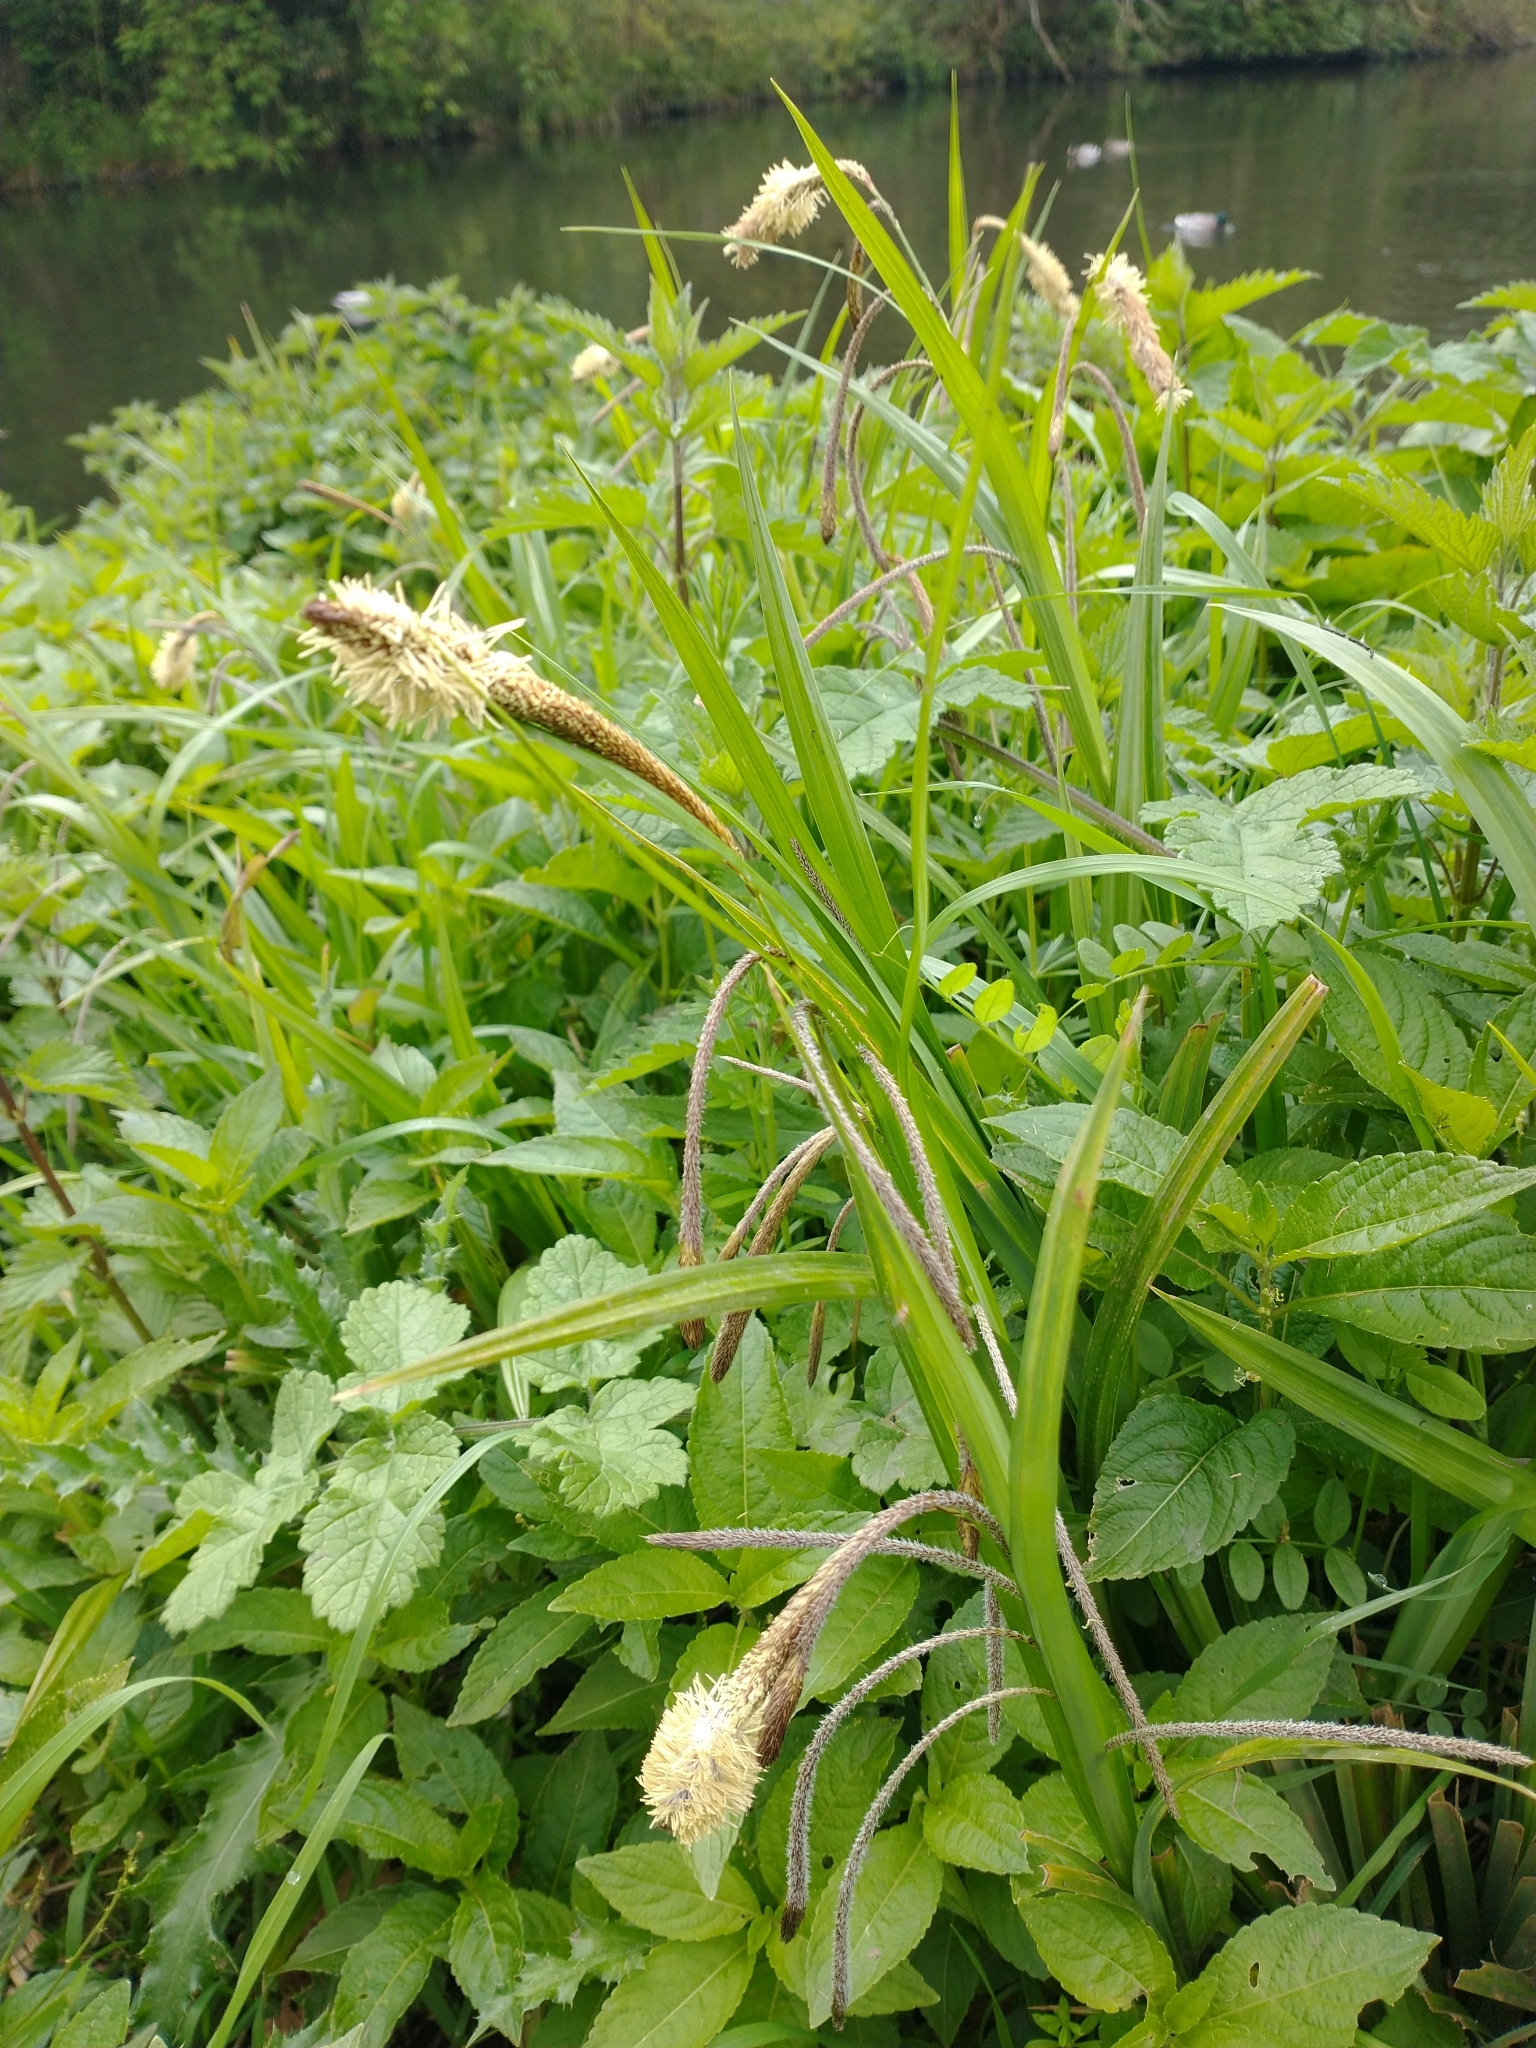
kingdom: Plantae
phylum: Tracheophyta
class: Liliopsida
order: Poales
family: Cyperaceae
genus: Carex
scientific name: Carex pendula
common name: Pendulous sedge
